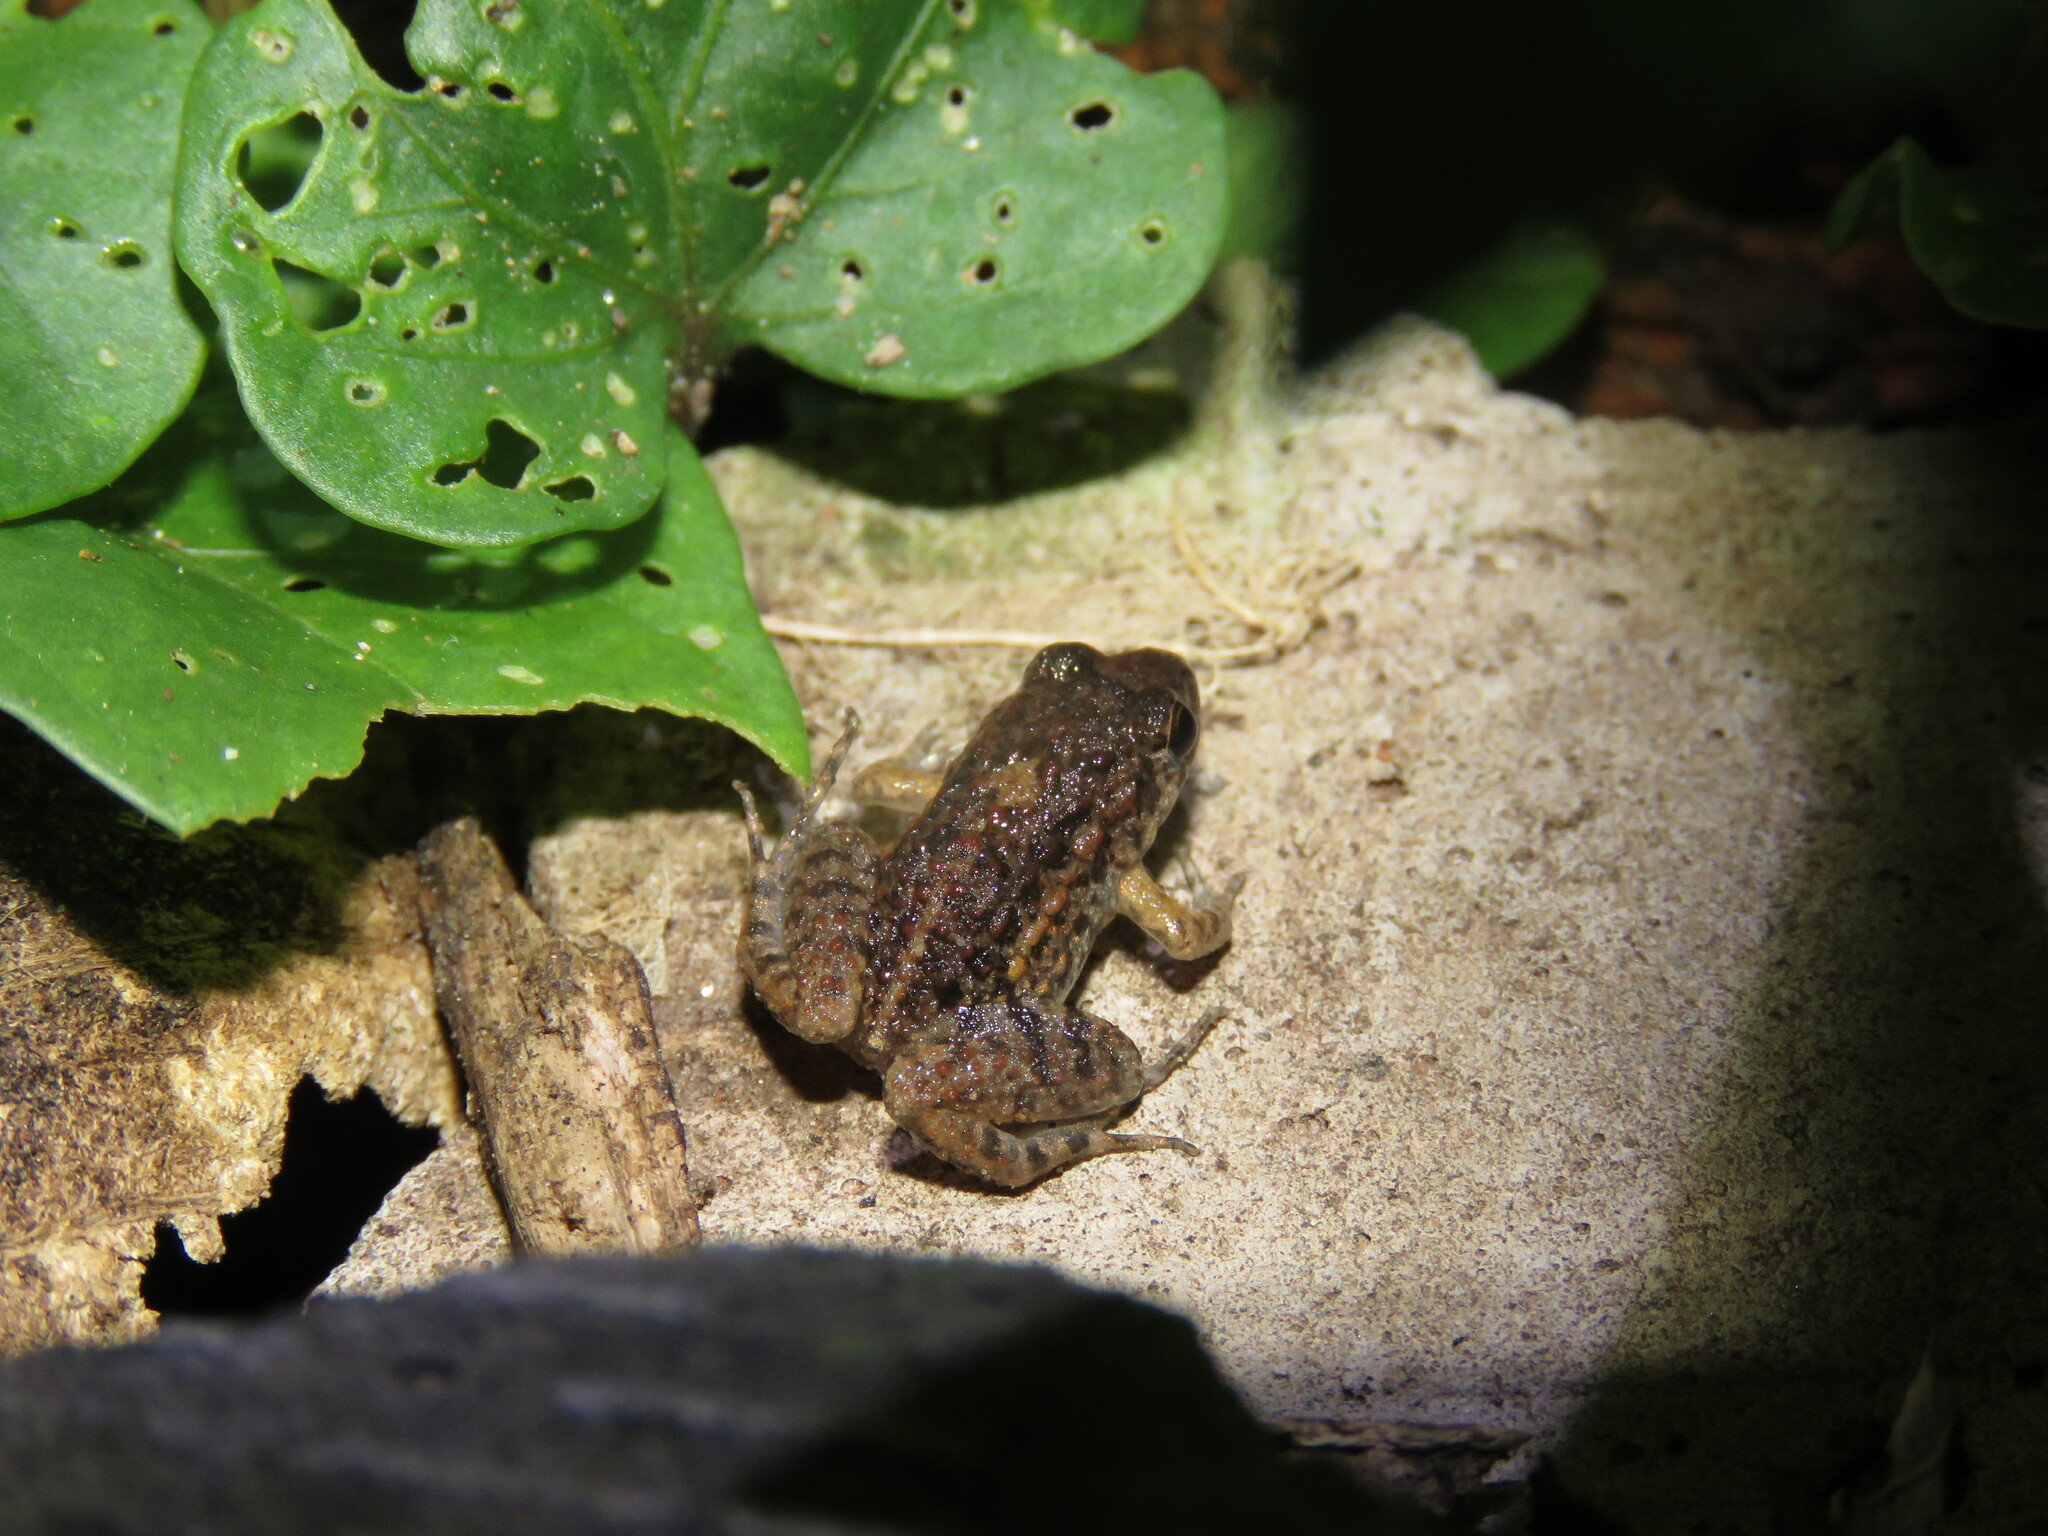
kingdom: Animalia
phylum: Chordata
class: Amphibia
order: Anura
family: Leptodactylidae
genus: Adenomera
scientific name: Adenomera hylaedactyla
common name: Napo tropical bullfrog
